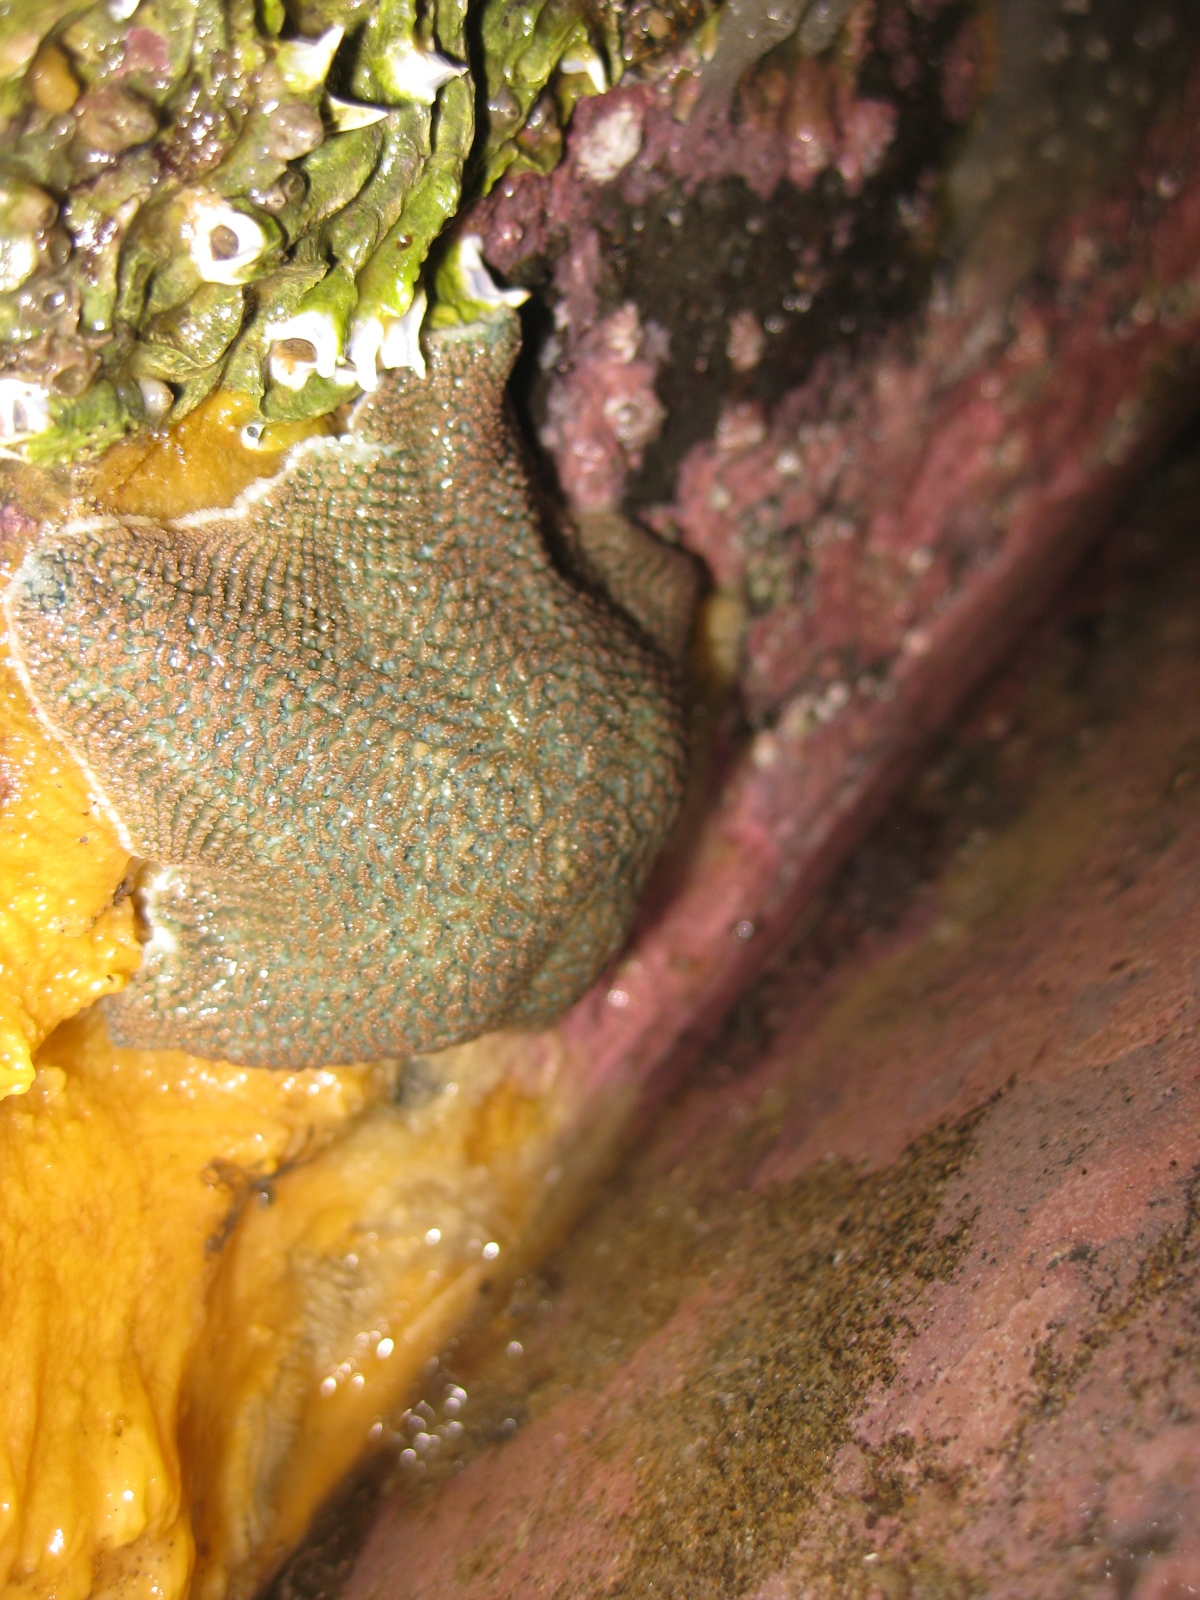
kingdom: Animalia
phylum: Echinodermata
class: Asteroidea
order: Valvatida
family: Asterinidae
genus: Patiriella
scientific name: Patiriella regularis
